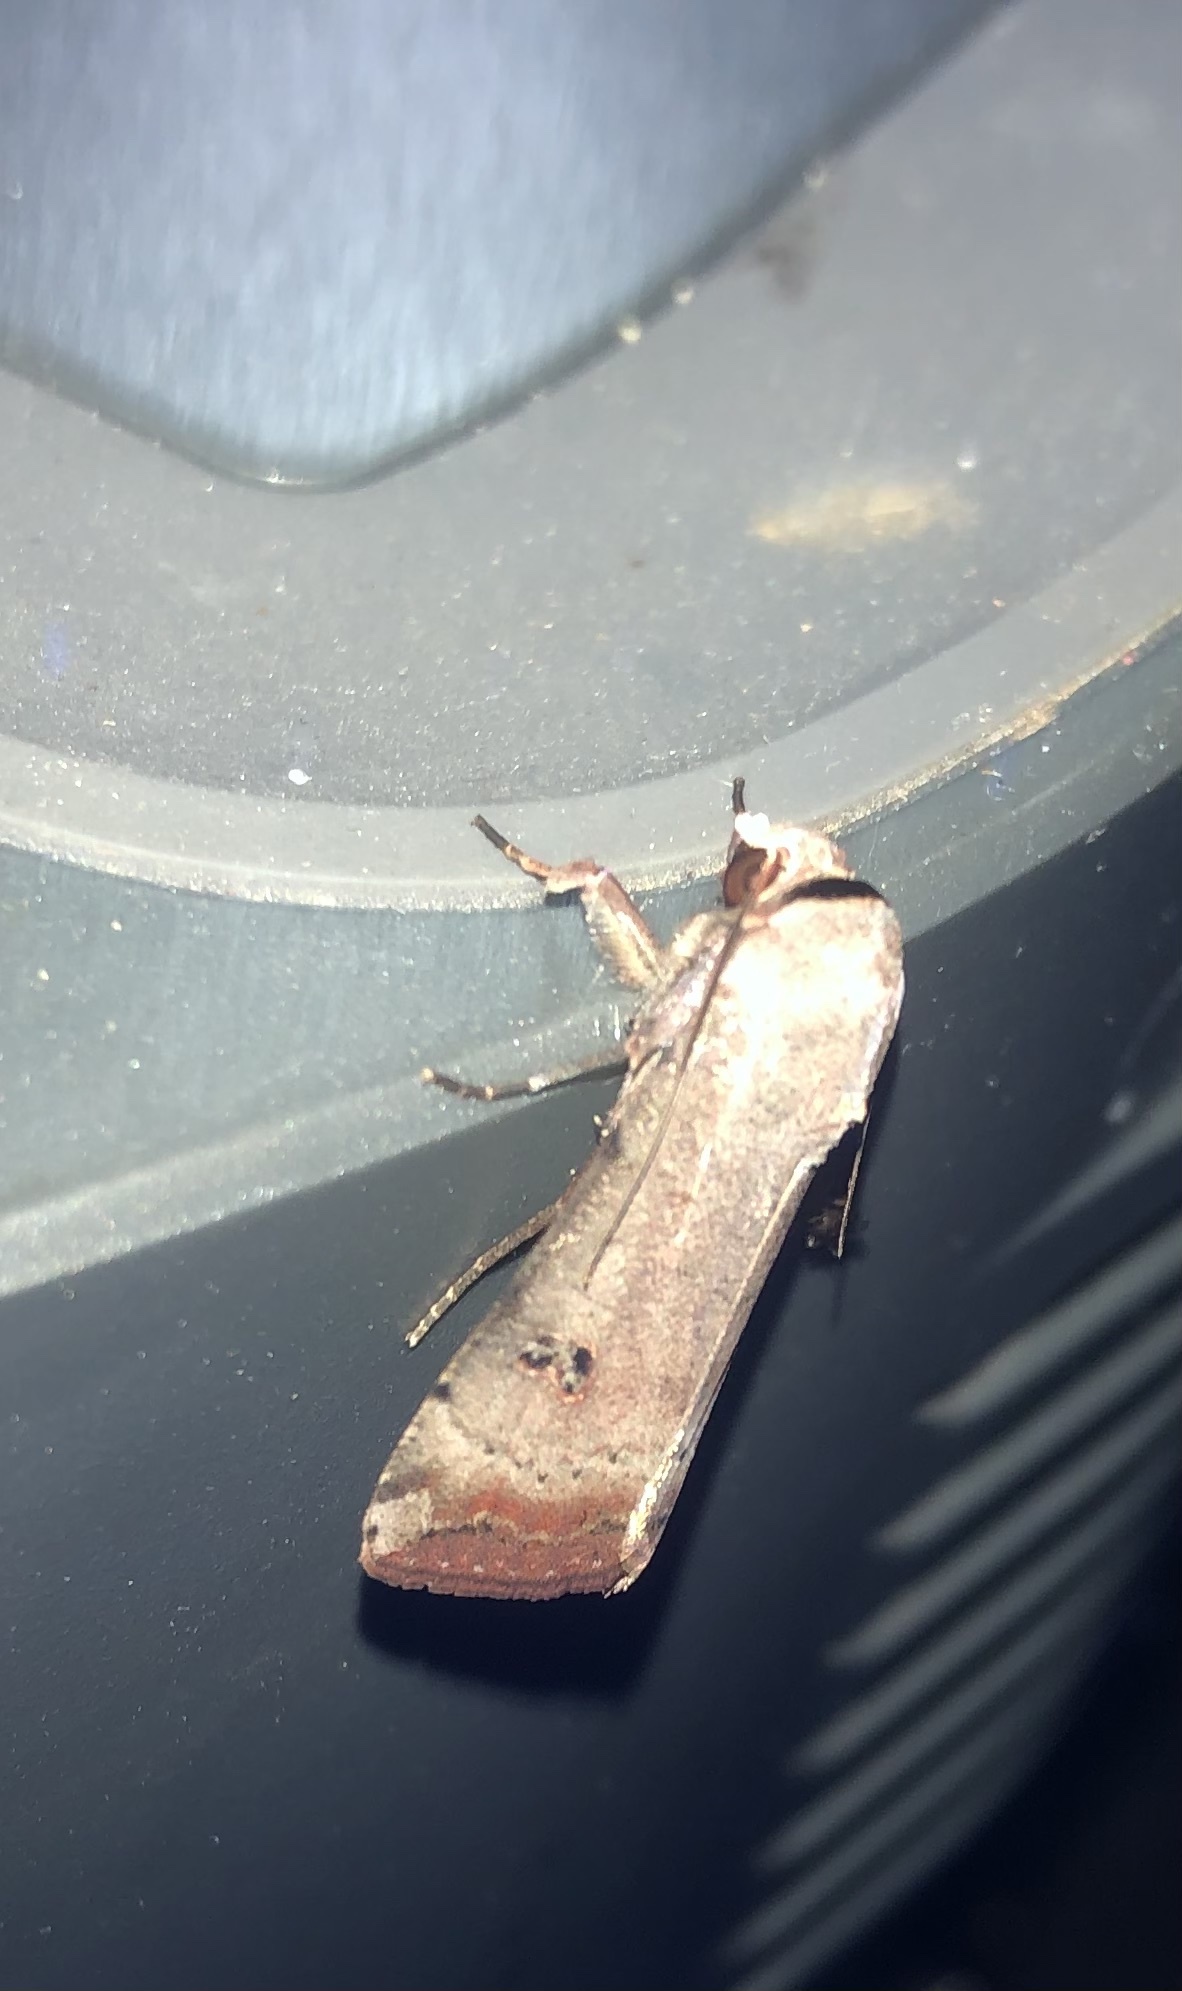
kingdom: Animalia
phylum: Arthropoda
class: Insecta
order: Lepidoptera
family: Noctuidae
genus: Anicla
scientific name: Anicla infecta
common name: Green cutworm
